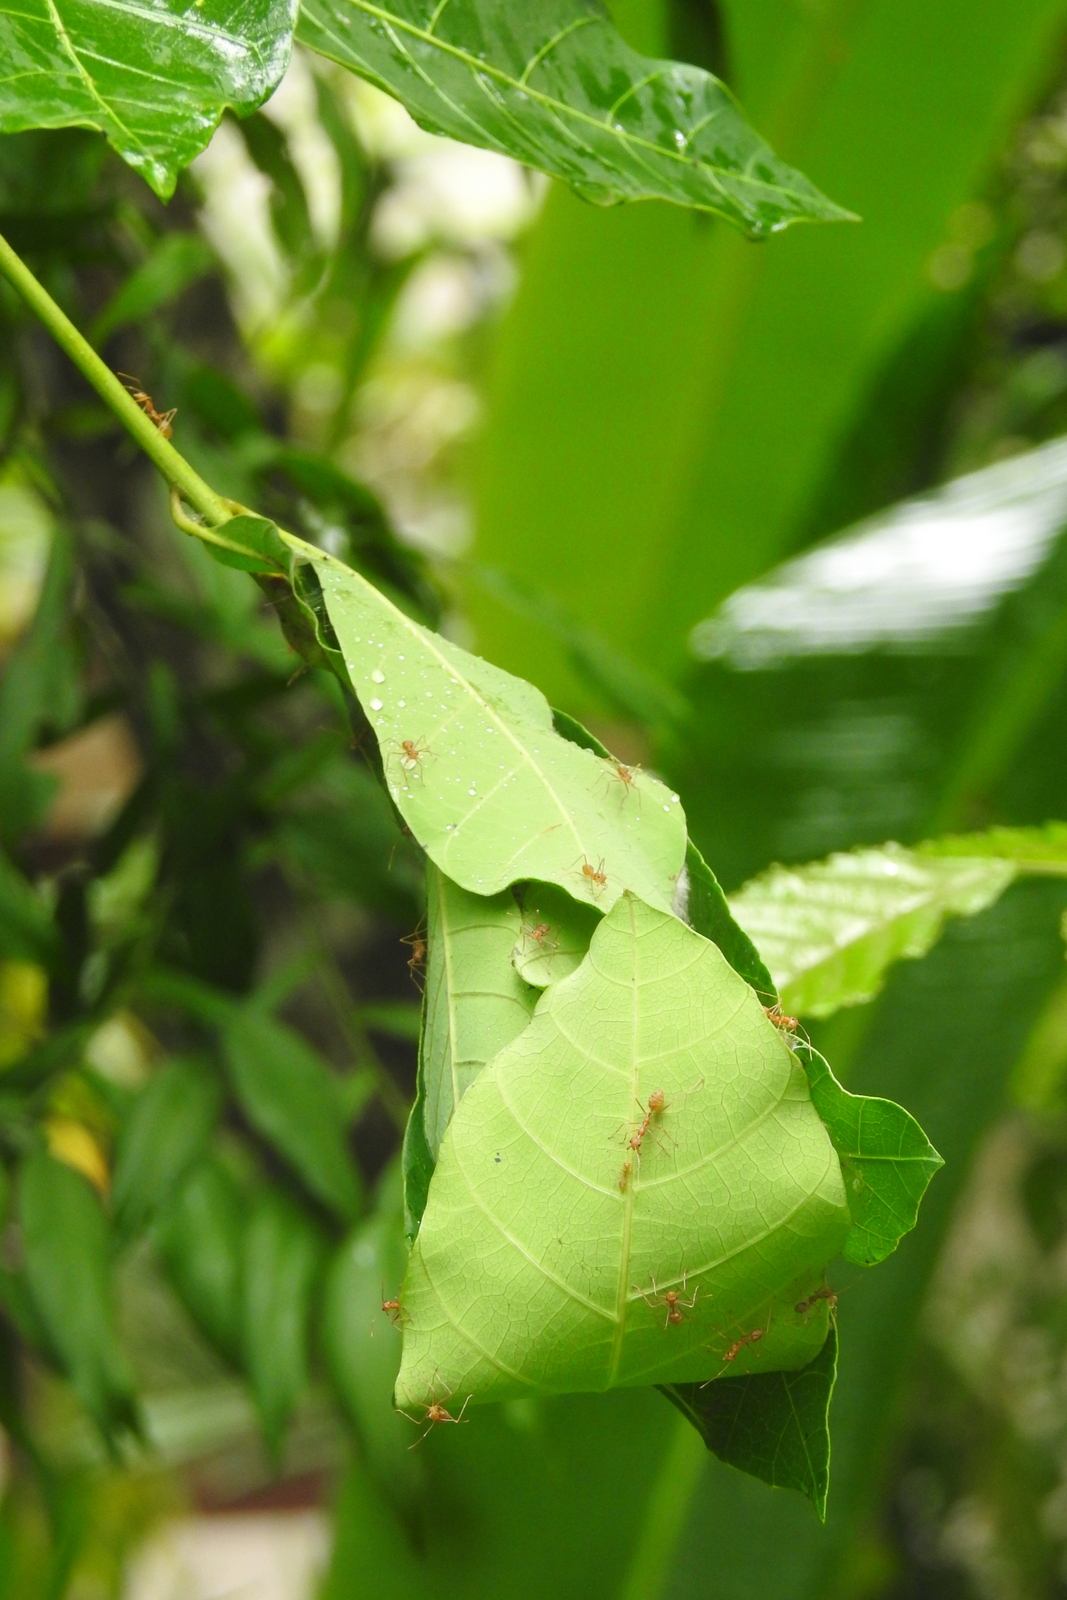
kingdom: Animalia
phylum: Arthropoda
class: Insecta
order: Hymenoptera
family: Formicidae
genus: Oecophylla
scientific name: Oecophylla smaragdina
